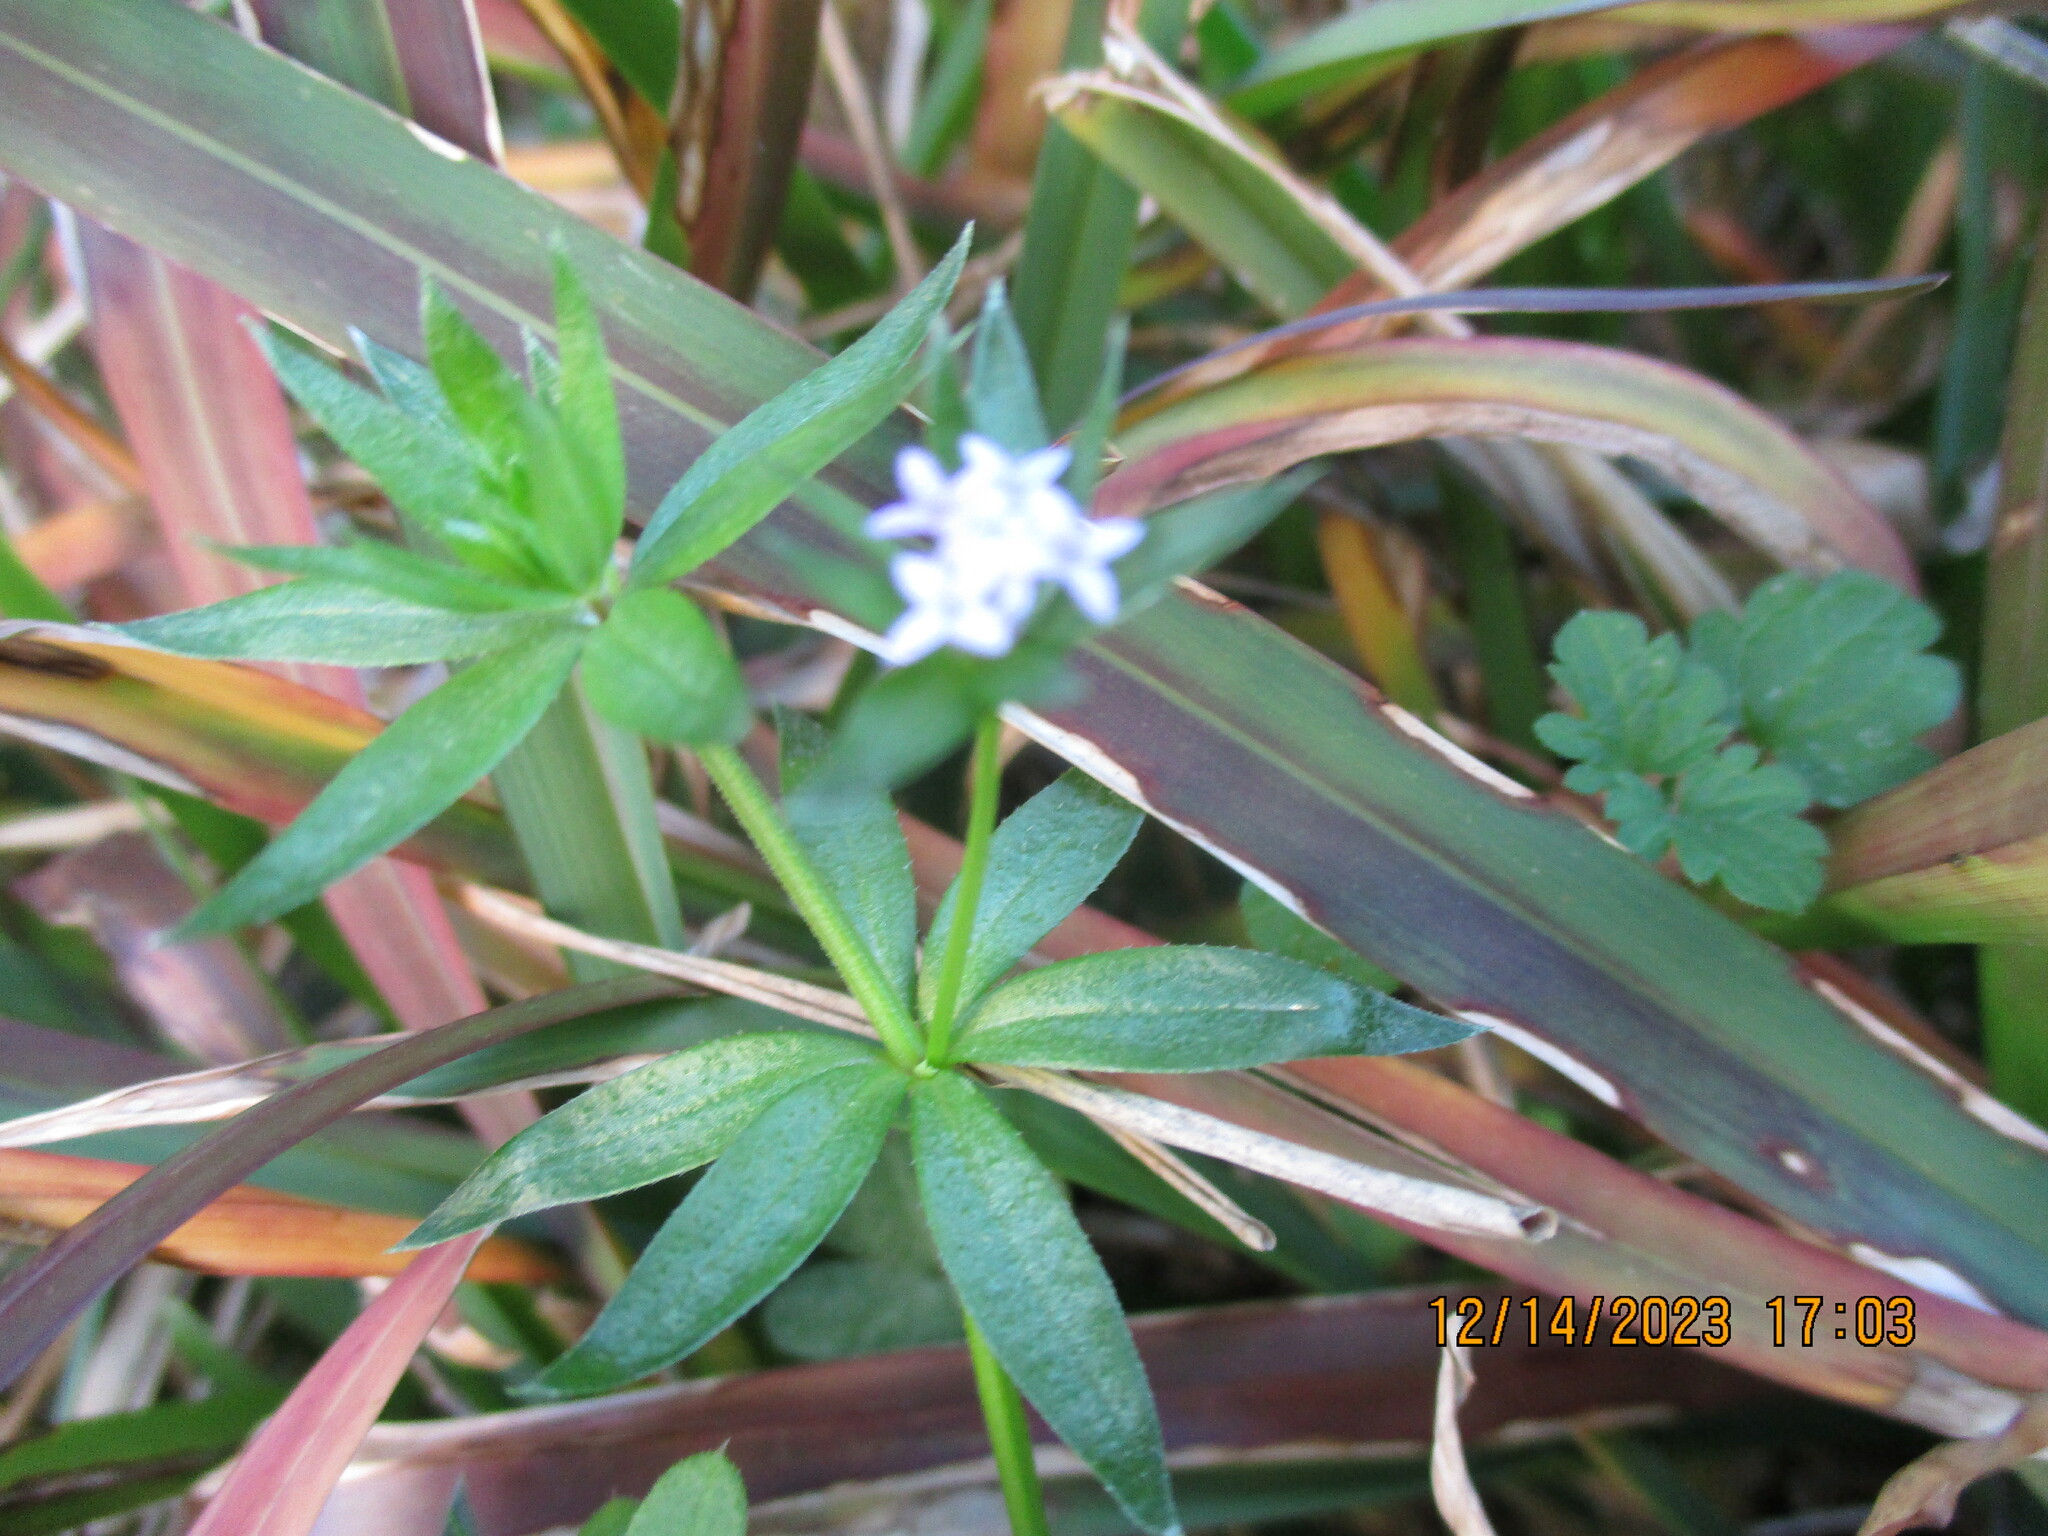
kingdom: Plantae
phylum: Tracheophyta
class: Magnoliopsida
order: Gentianales
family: Rubiaceae
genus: Sherardia
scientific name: Sherardia arvensis
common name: Field madder
